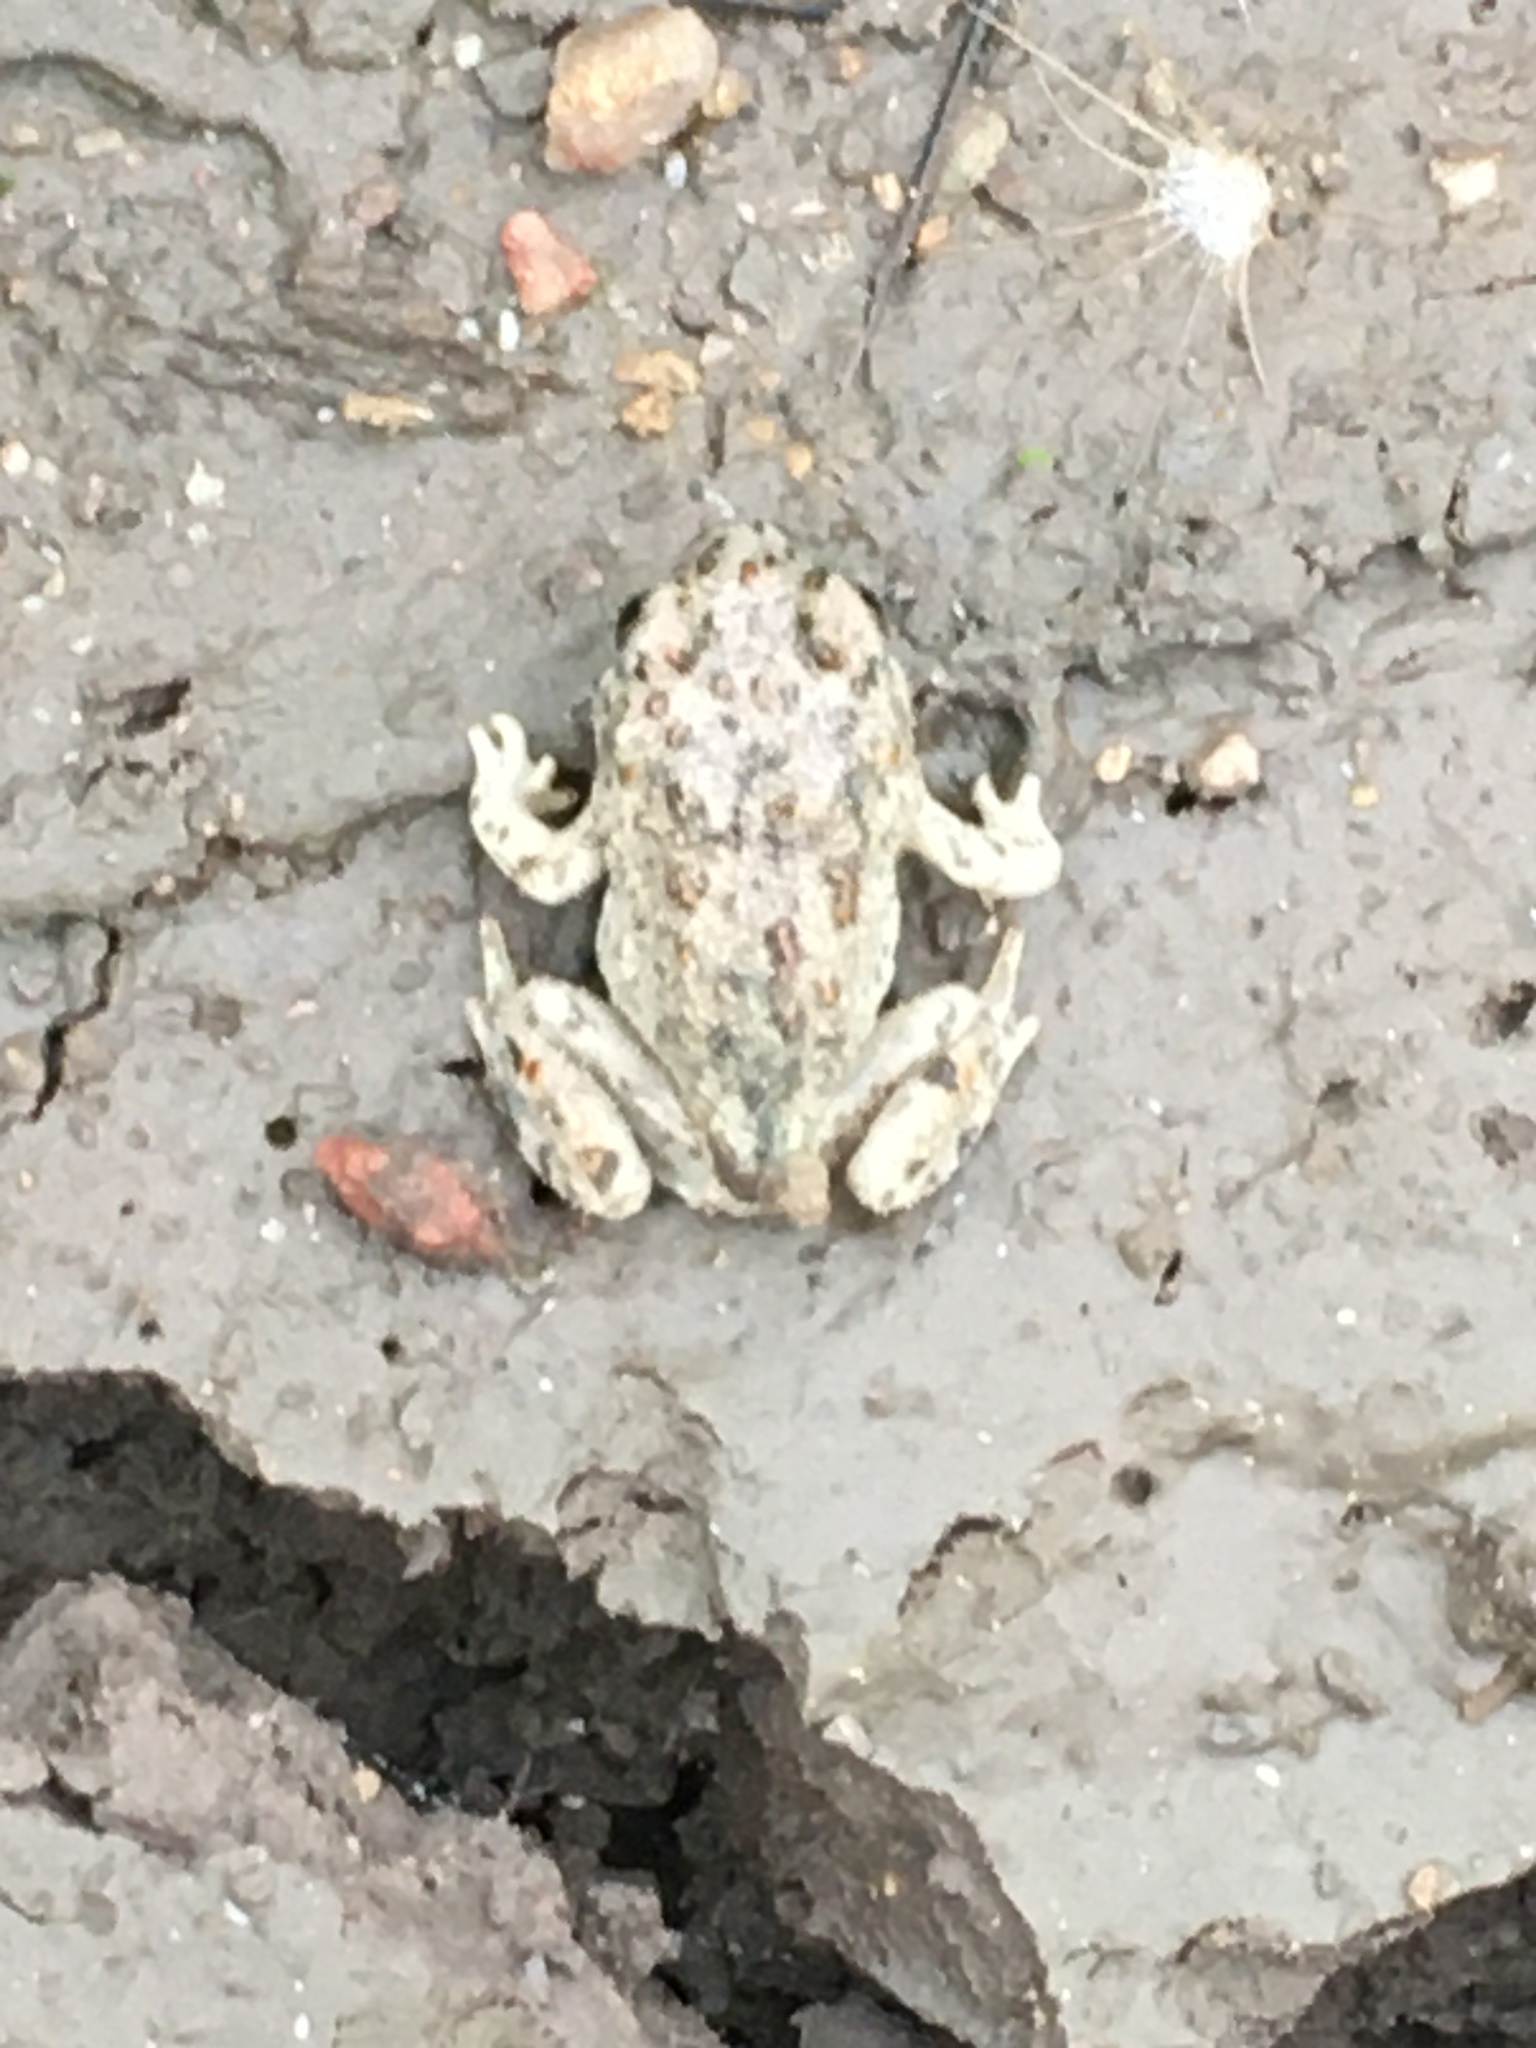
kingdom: Animalia
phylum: Chordata
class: Amphibia
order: Anura
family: Scaphiopodidae
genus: Spea
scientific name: Spea hammondii
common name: Western spadefoot toad
